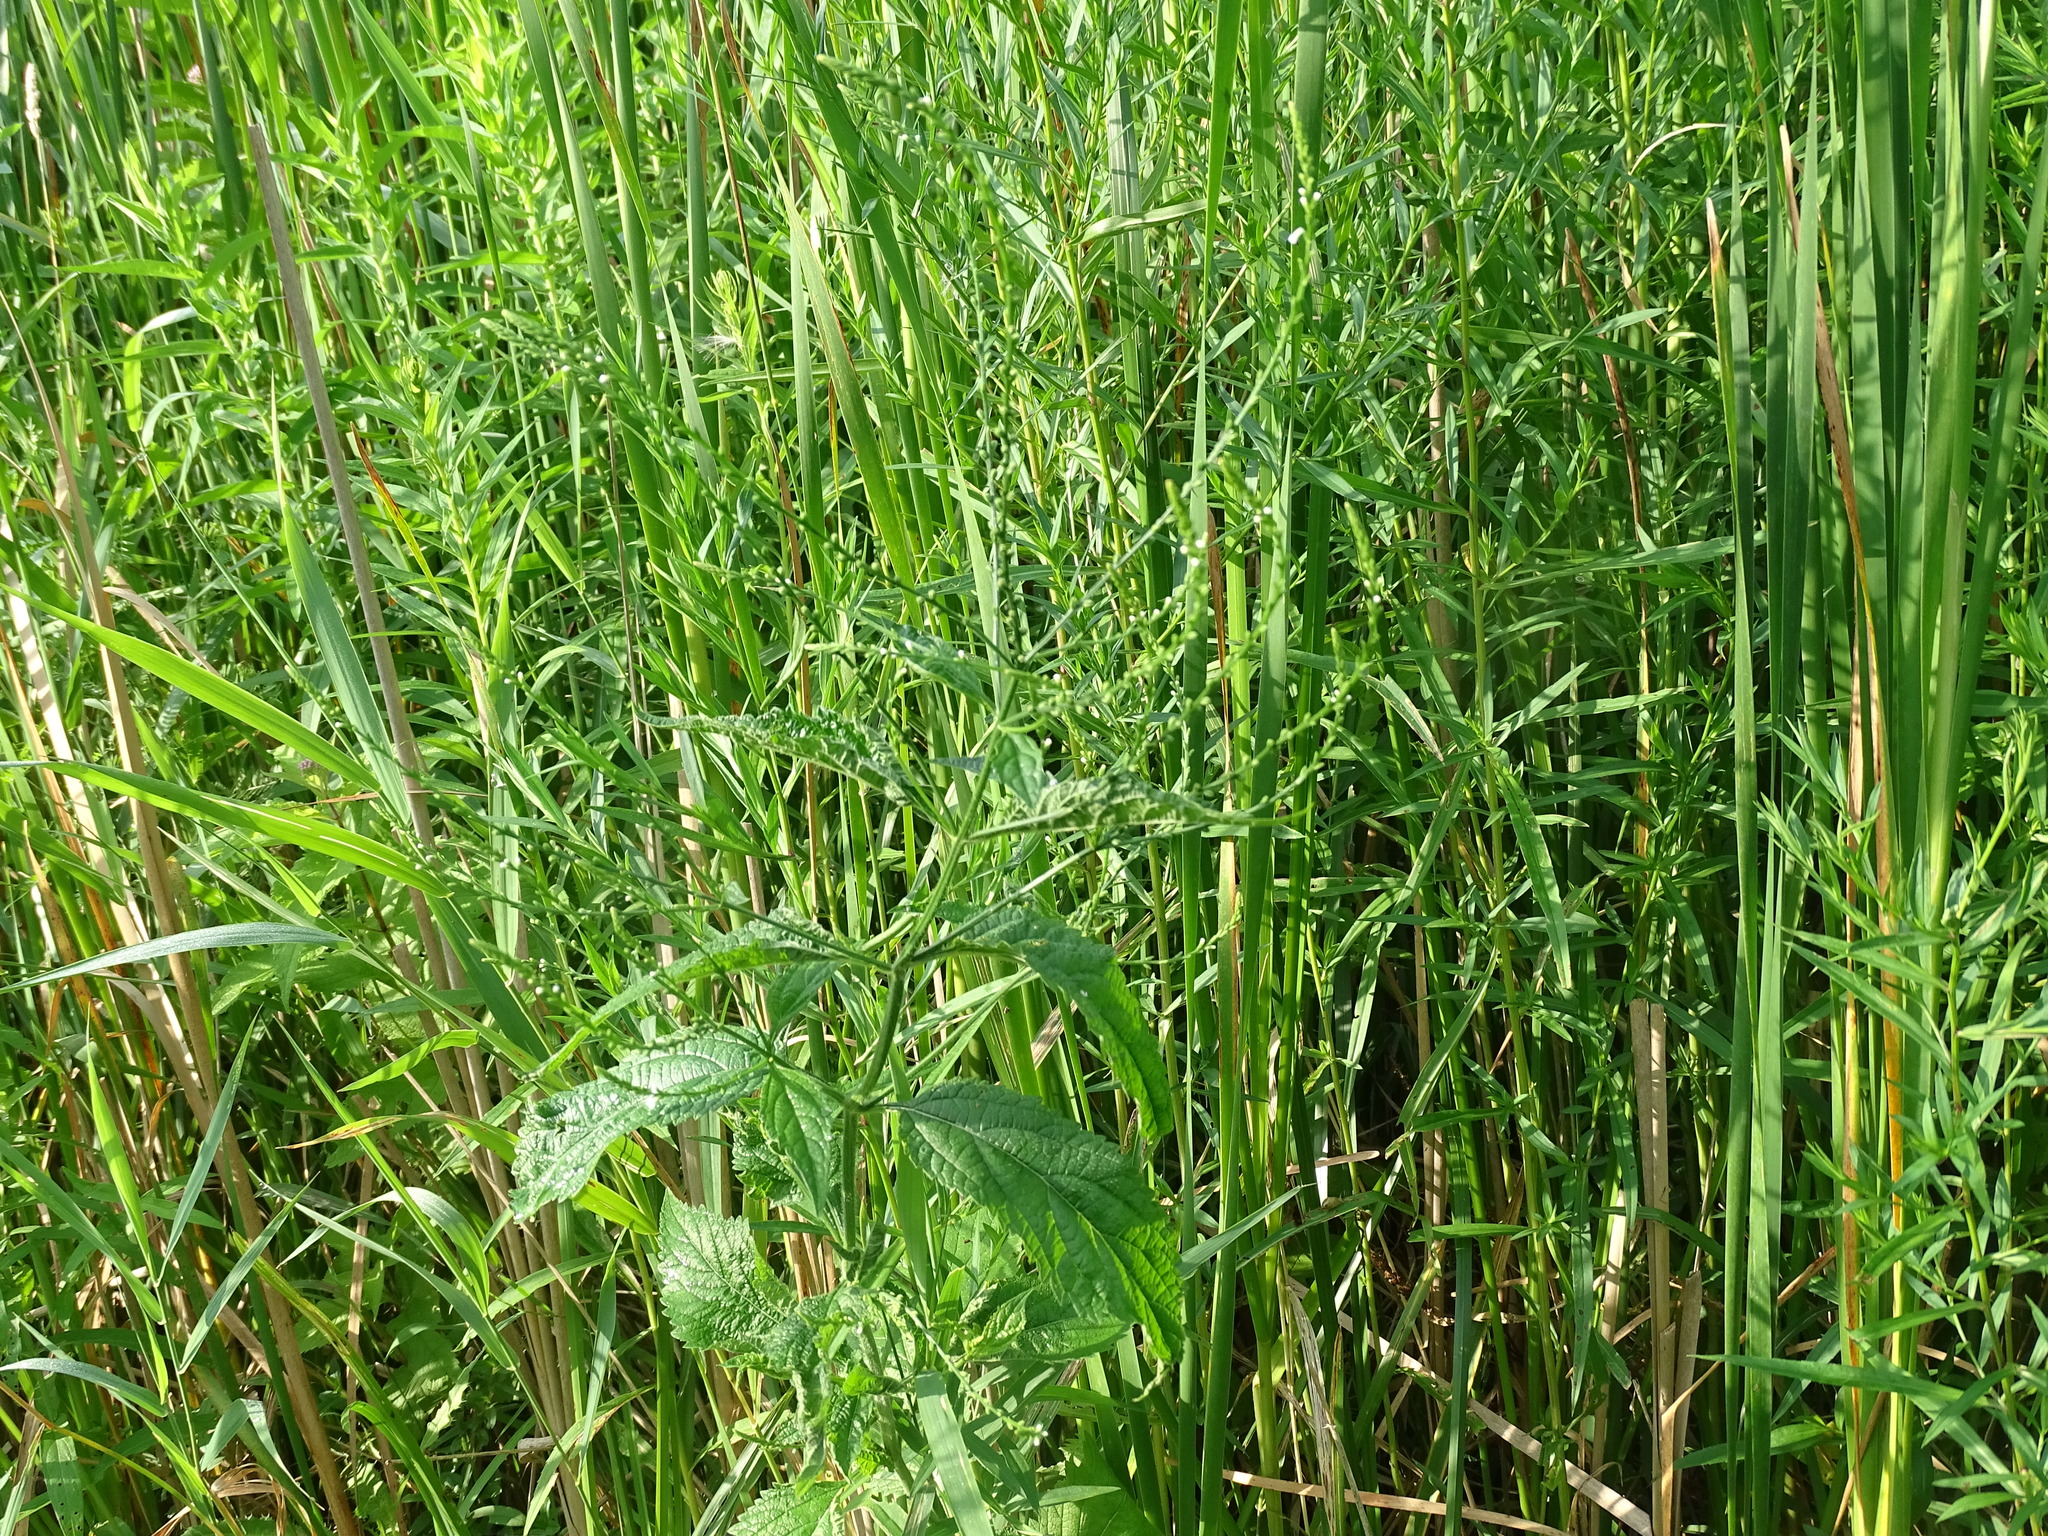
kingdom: Plantae
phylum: Tracheophyta
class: Magnoliopsida
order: Lamiales
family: Verbenaceae
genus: Verbena
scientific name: Verbena urticifolia
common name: Nettle-leaved vervain
